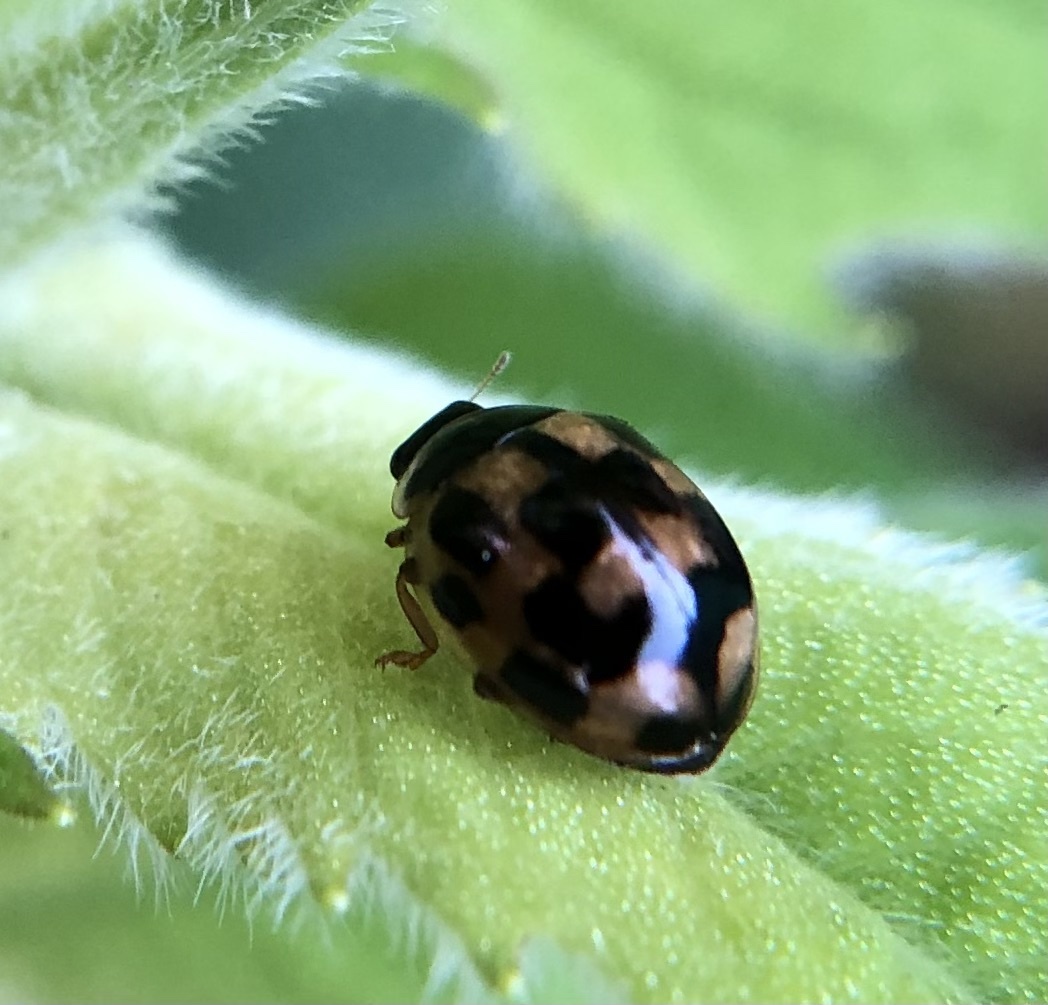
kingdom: Animalia
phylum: Arthropoda
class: Insecta
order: Coleoptera
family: Coccinellidae
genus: Propylaea
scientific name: Propylaea quatuordecimpunctata
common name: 14-spotted ladybird beetle
